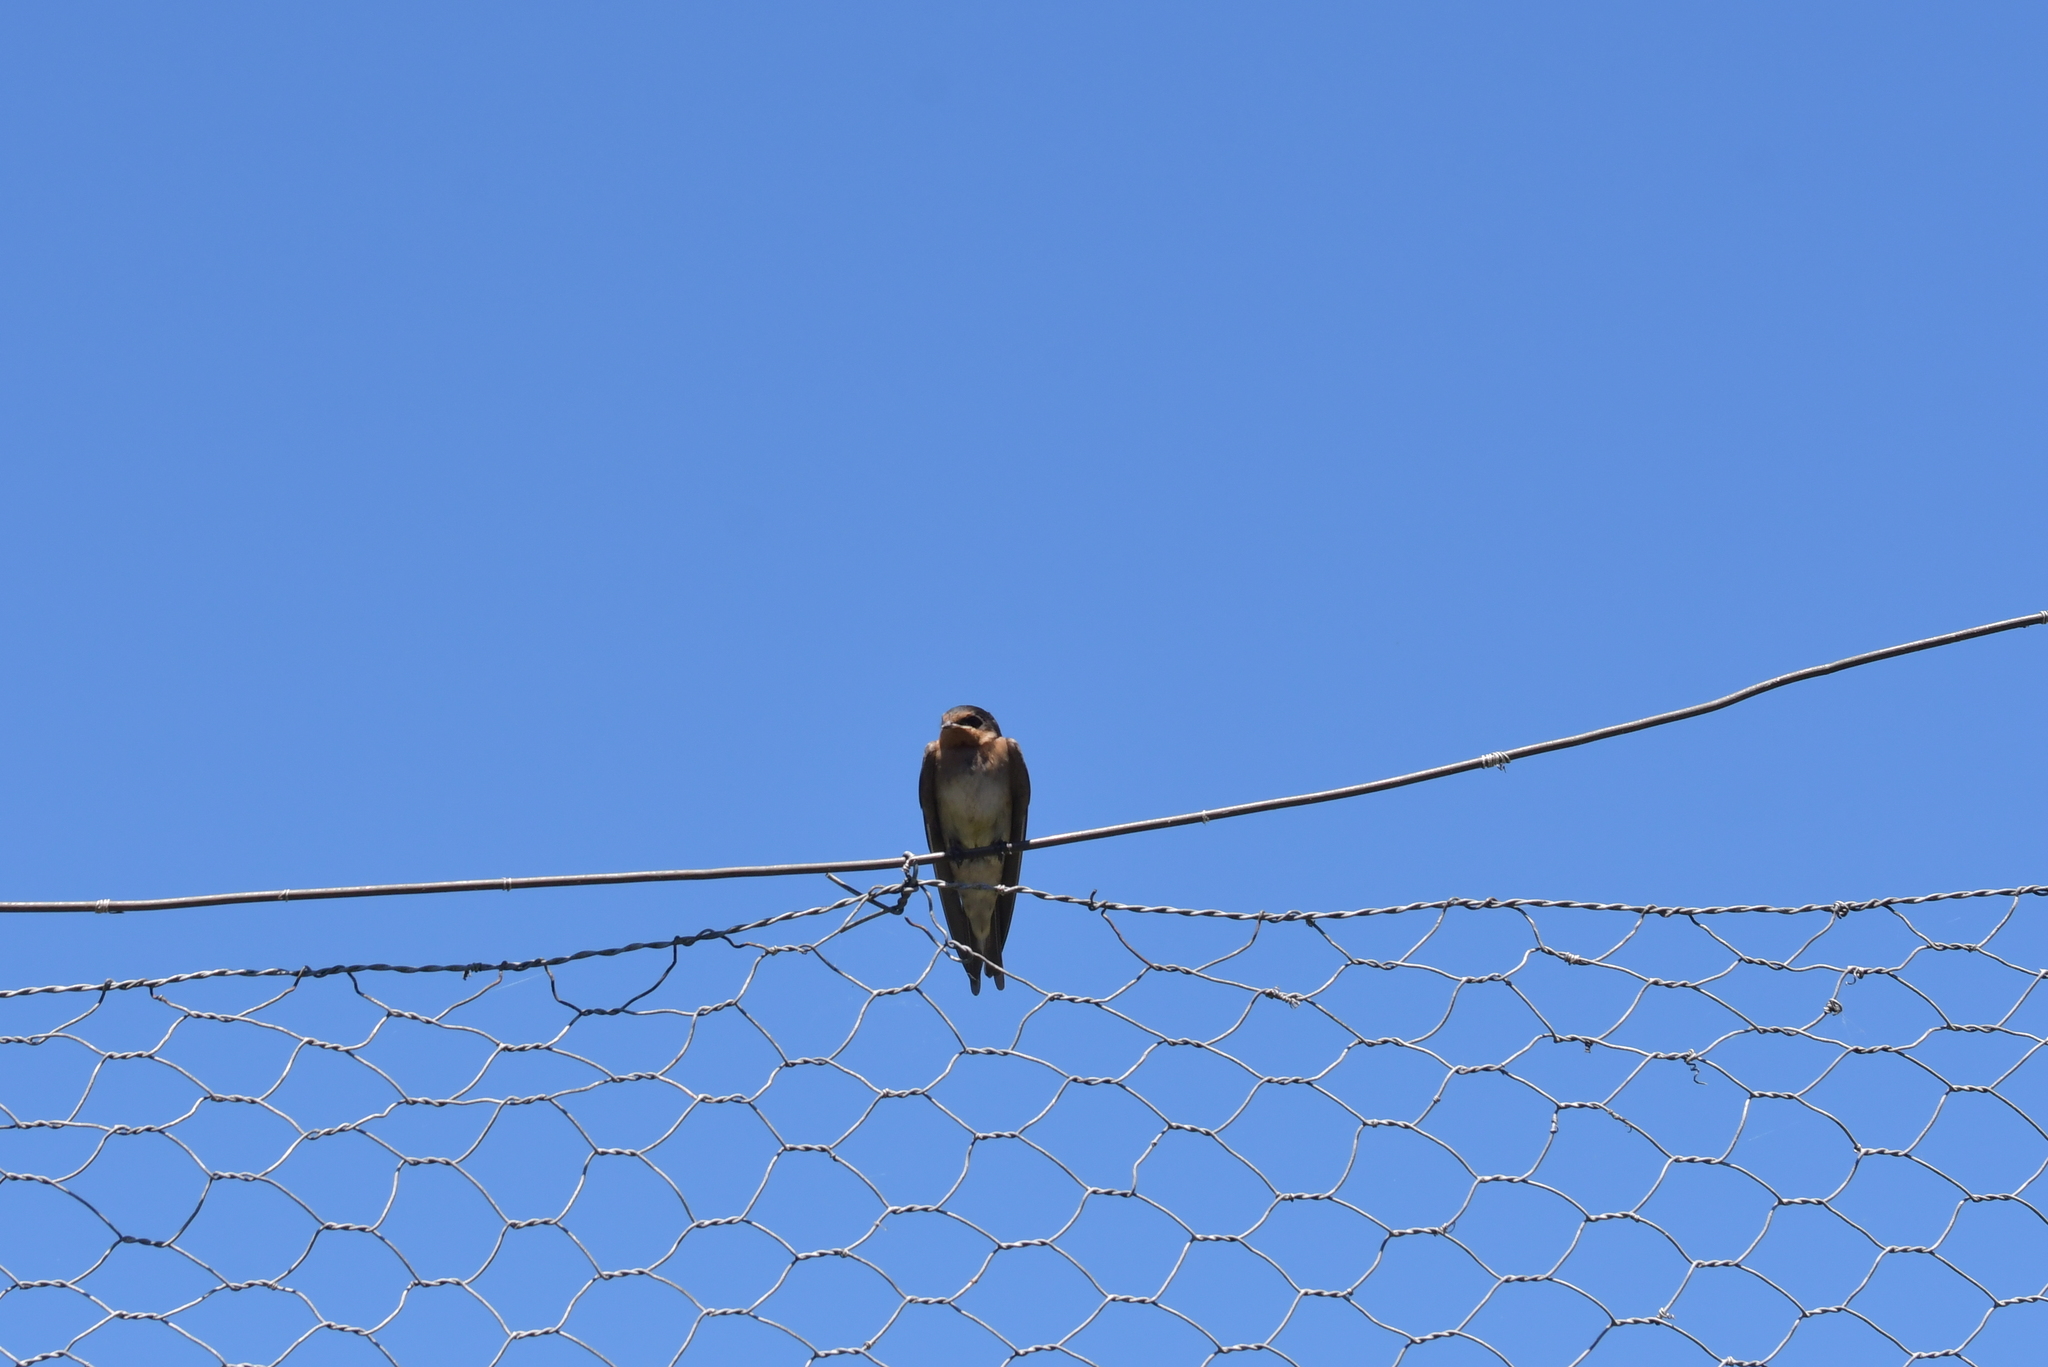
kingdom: Animalia
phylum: Chordata
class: Aves
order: Passeriformes
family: Hirundinidae
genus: Hirundo
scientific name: Hirundo neoxena
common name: Welcome swallow
